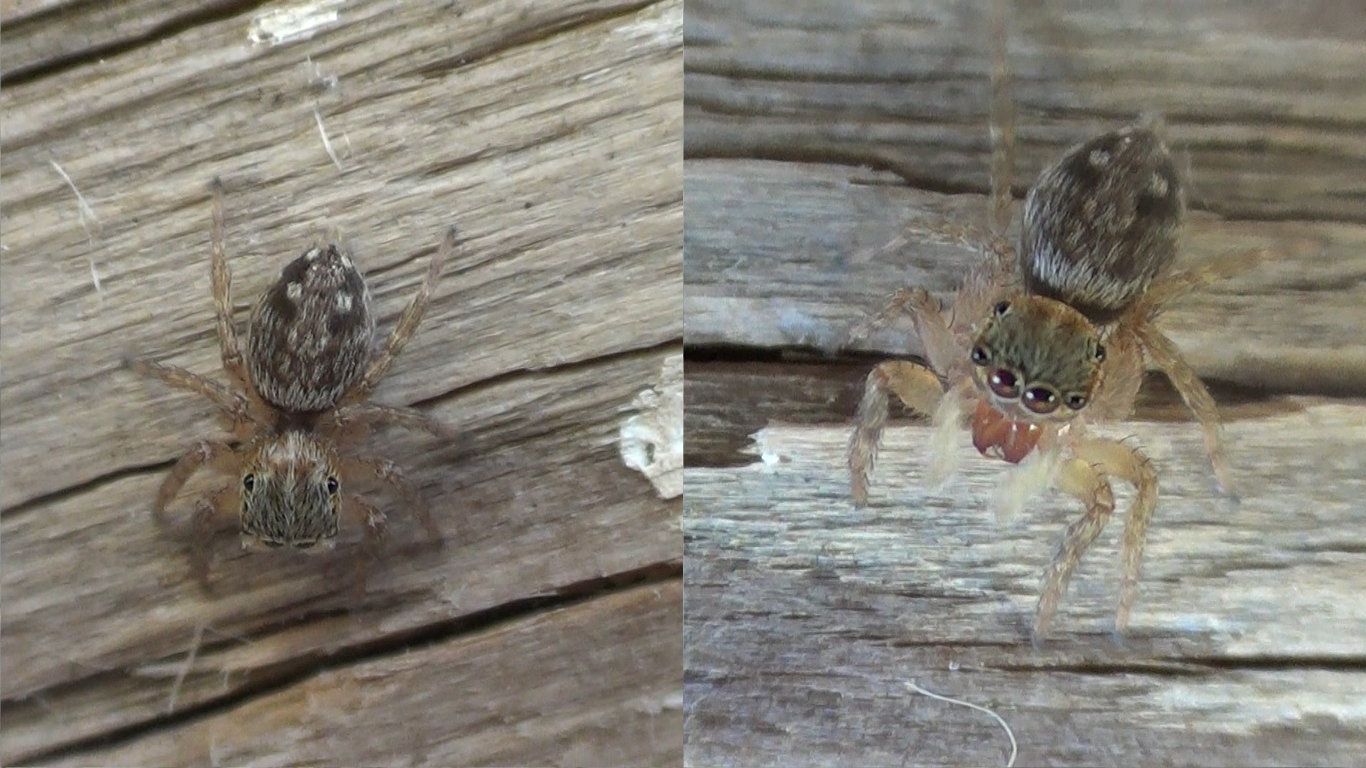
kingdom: Animalia
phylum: Arthropoda
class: Arachnida
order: Araneae
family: Salticidae
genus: Hasarius
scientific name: Hasarius adansoni
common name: Jumping spider
